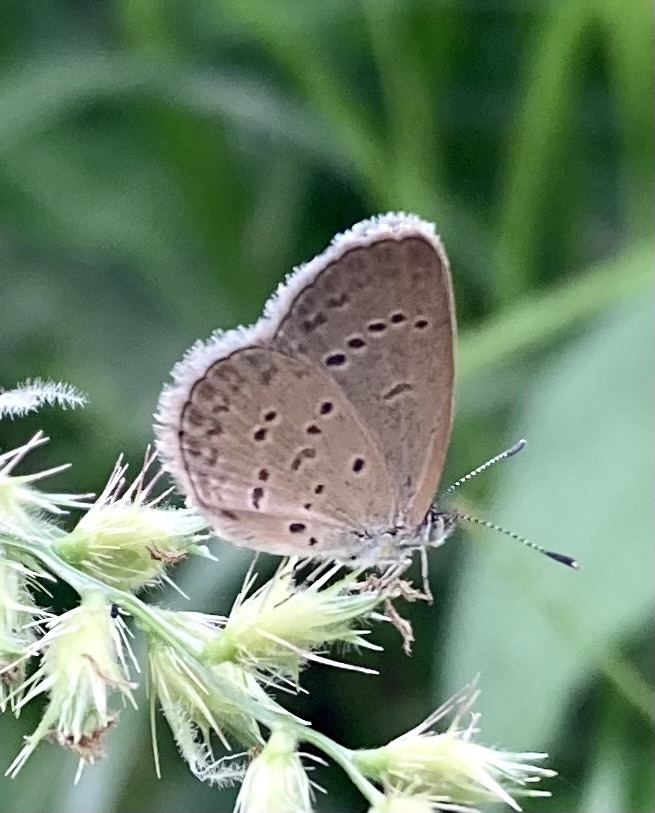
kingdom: Animalia
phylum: Arthropoda
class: Insecta
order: Lepidoptera
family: Lycaenidae
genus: Zizina
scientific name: Zizina otis
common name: Lesser grass blue
